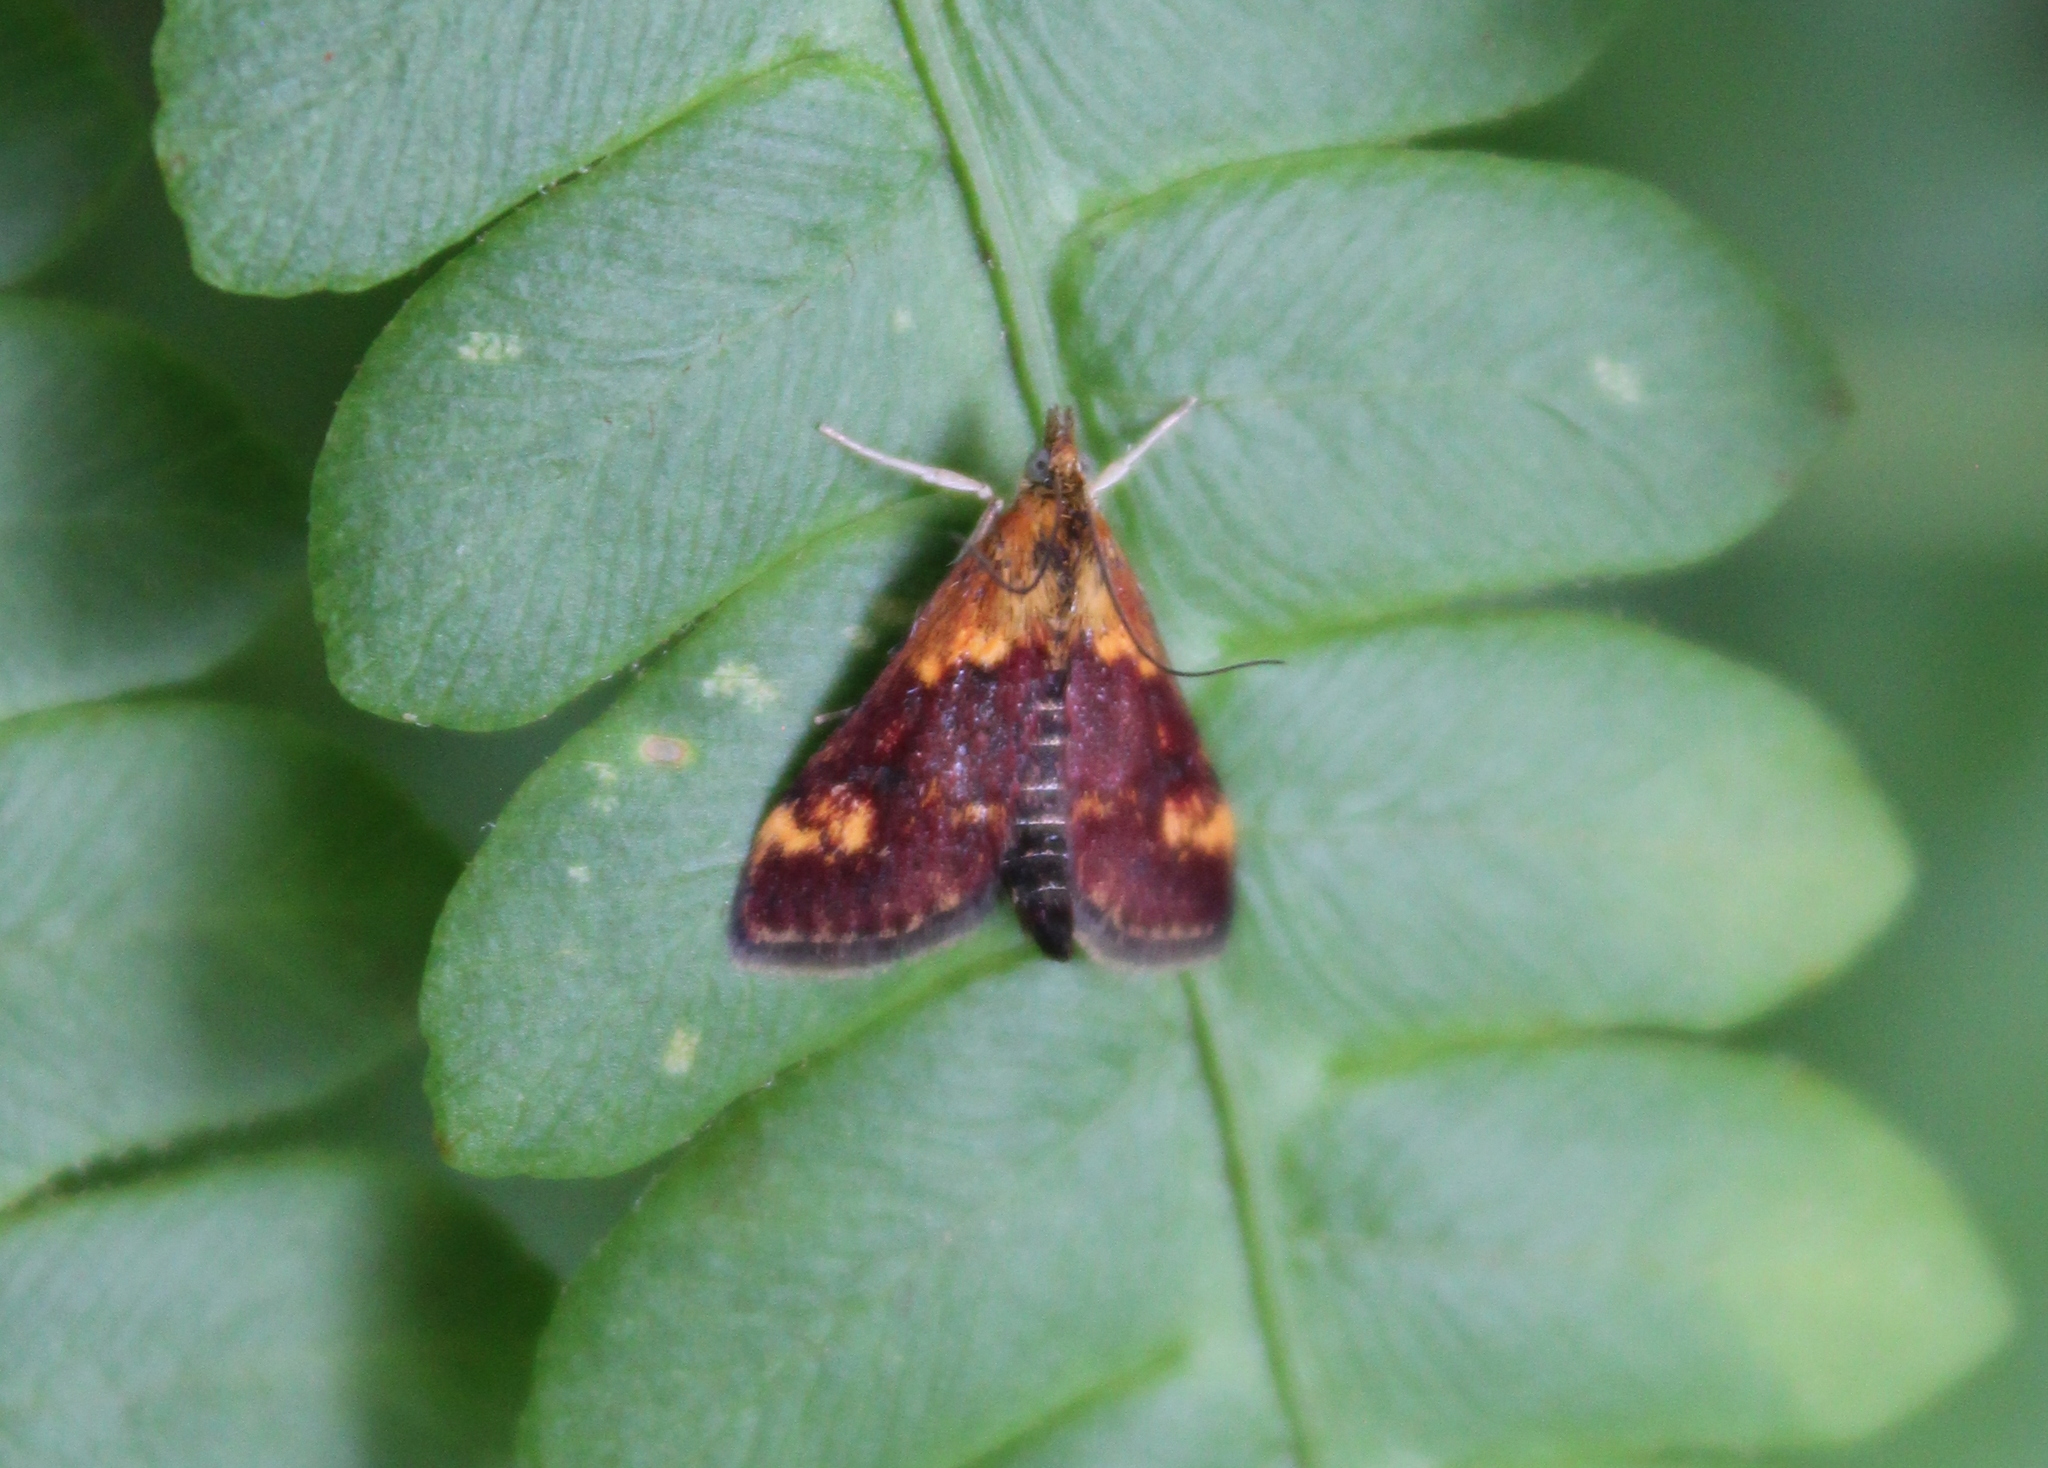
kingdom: Animalia
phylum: Arthropoda
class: Insecta
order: Lepidoptera
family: Crambidae
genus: Pyrausta
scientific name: Pyrausta orphisalis
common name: Orange mint moth
